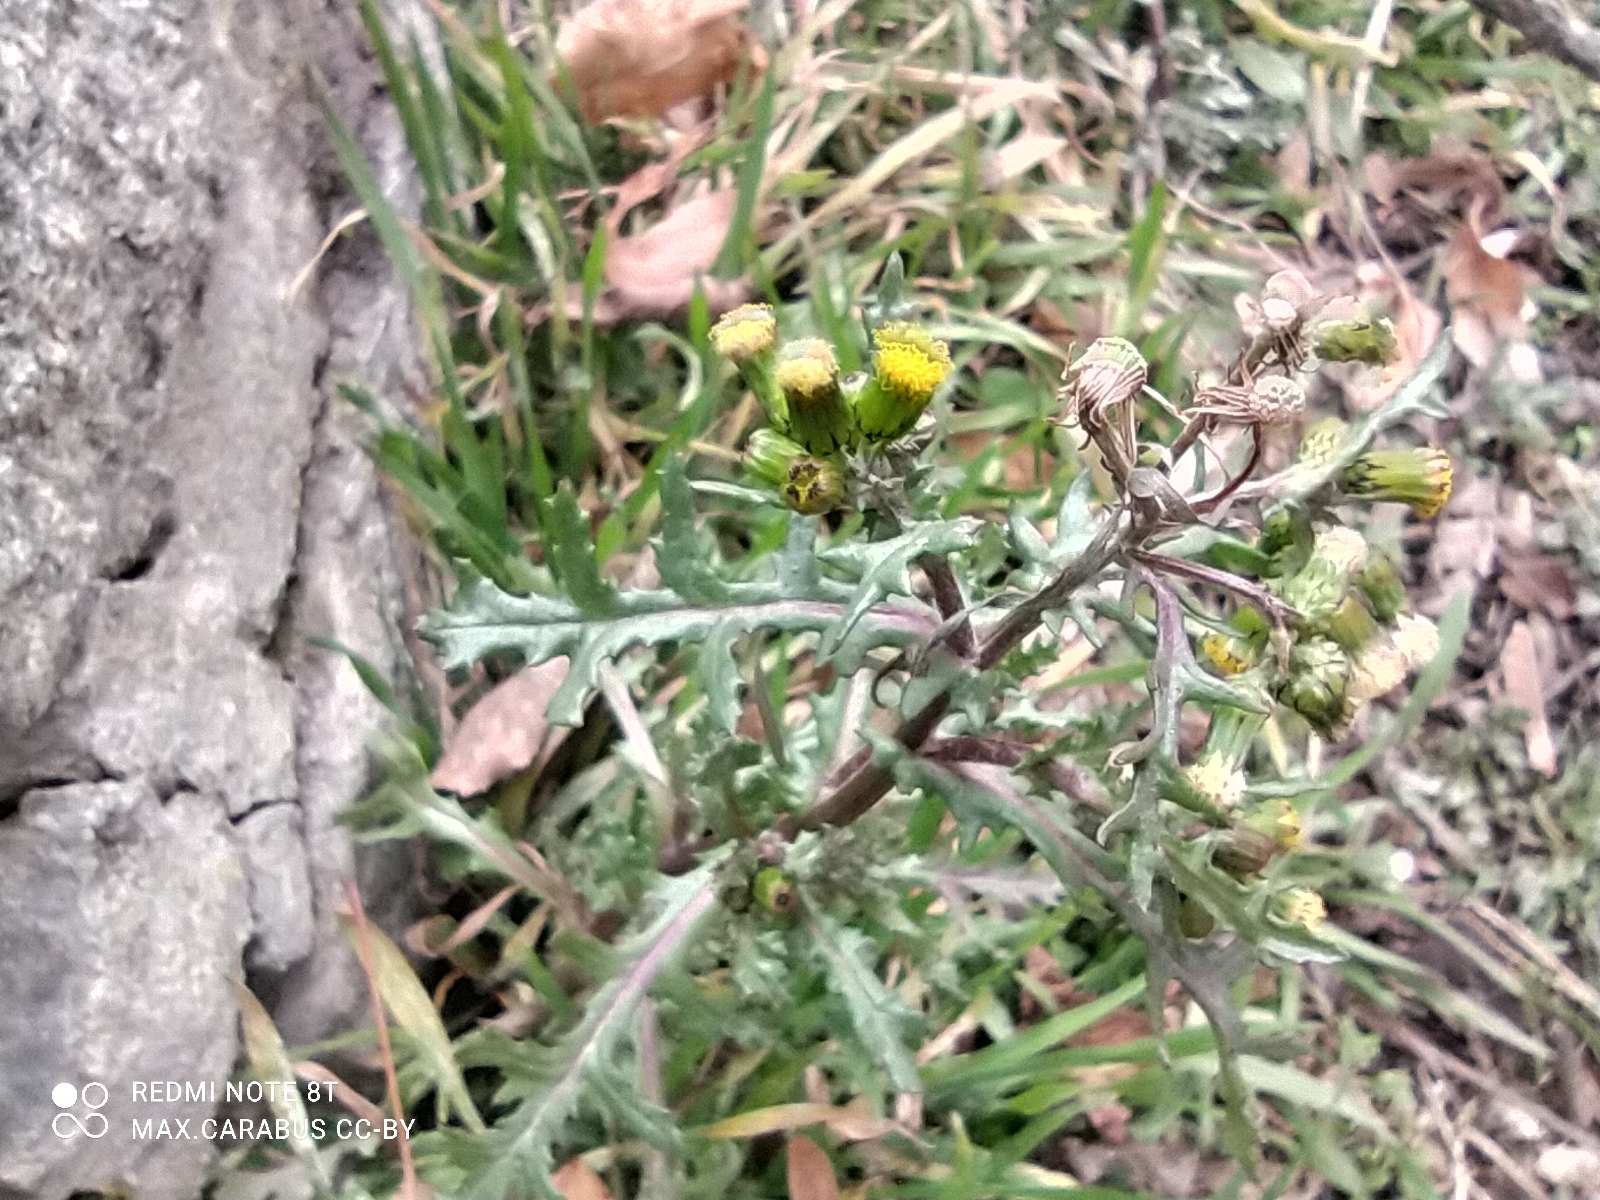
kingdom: Plantae
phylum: Tracheophyta
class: Magnoliopsida
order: Asterales
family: Asteraceae
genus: Senecio
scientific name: Senecio vulgaris
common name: Old-man-in-the-spring
